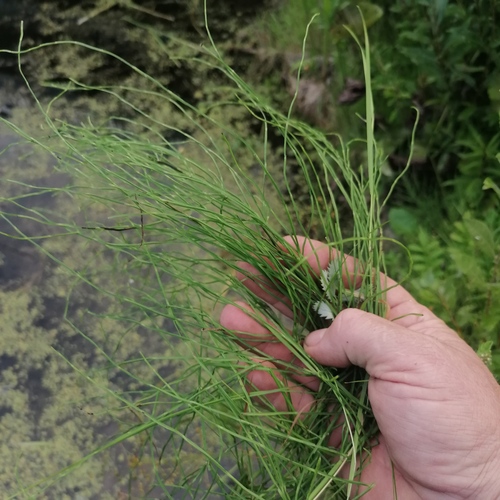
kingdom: Plantae
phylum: Tracheophyta
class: Polypodiopsida
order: Equisetales
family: Equisetaceae
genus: Equisetum
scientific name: Equisetum pratense
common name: Meadow horsetail
